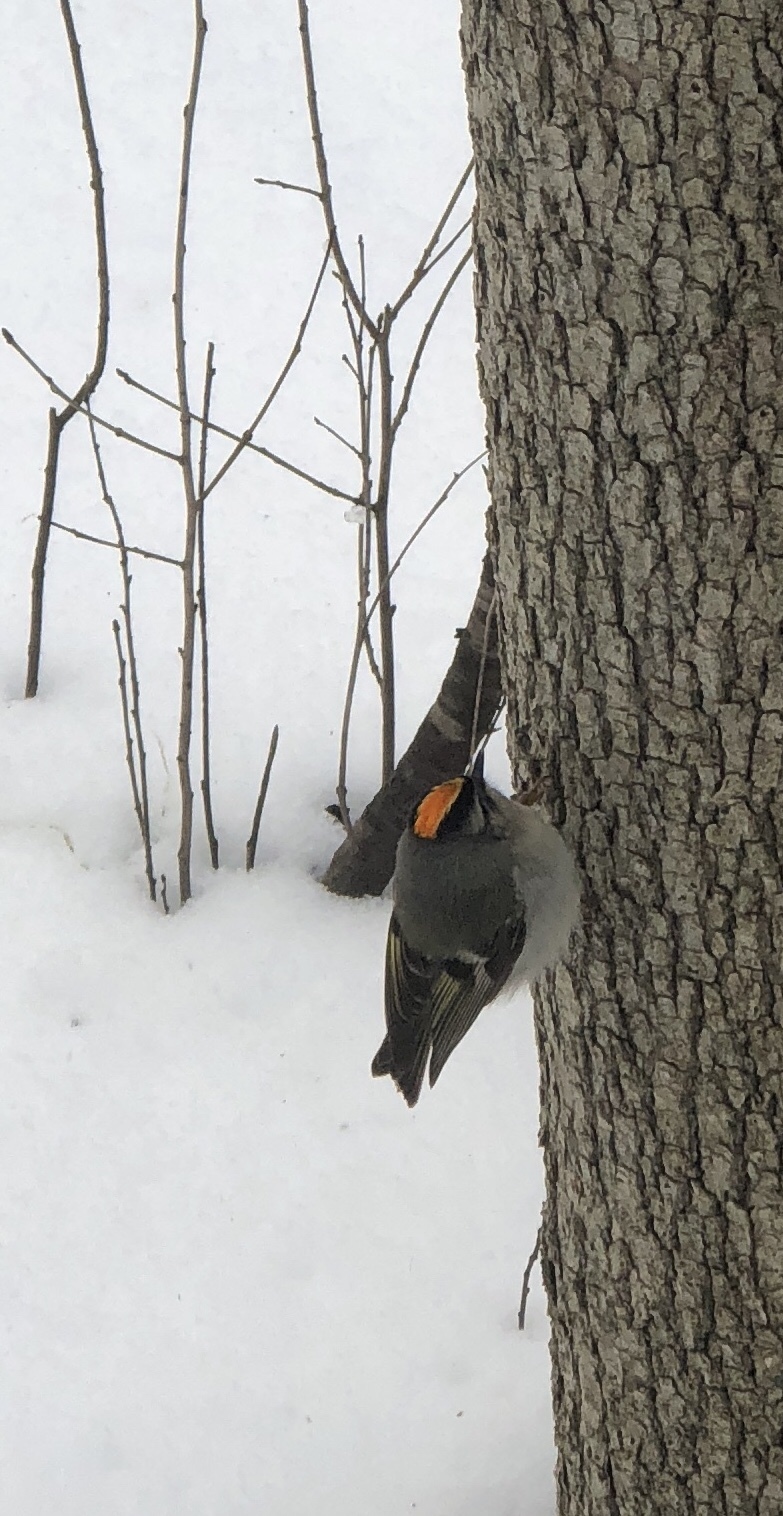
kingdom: Animalia
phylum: Chordata
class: Aves
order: Passeriformes
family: Regulidae
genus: Regulus
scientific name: Regulus satrapa
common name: Golden-crowned kinglet
